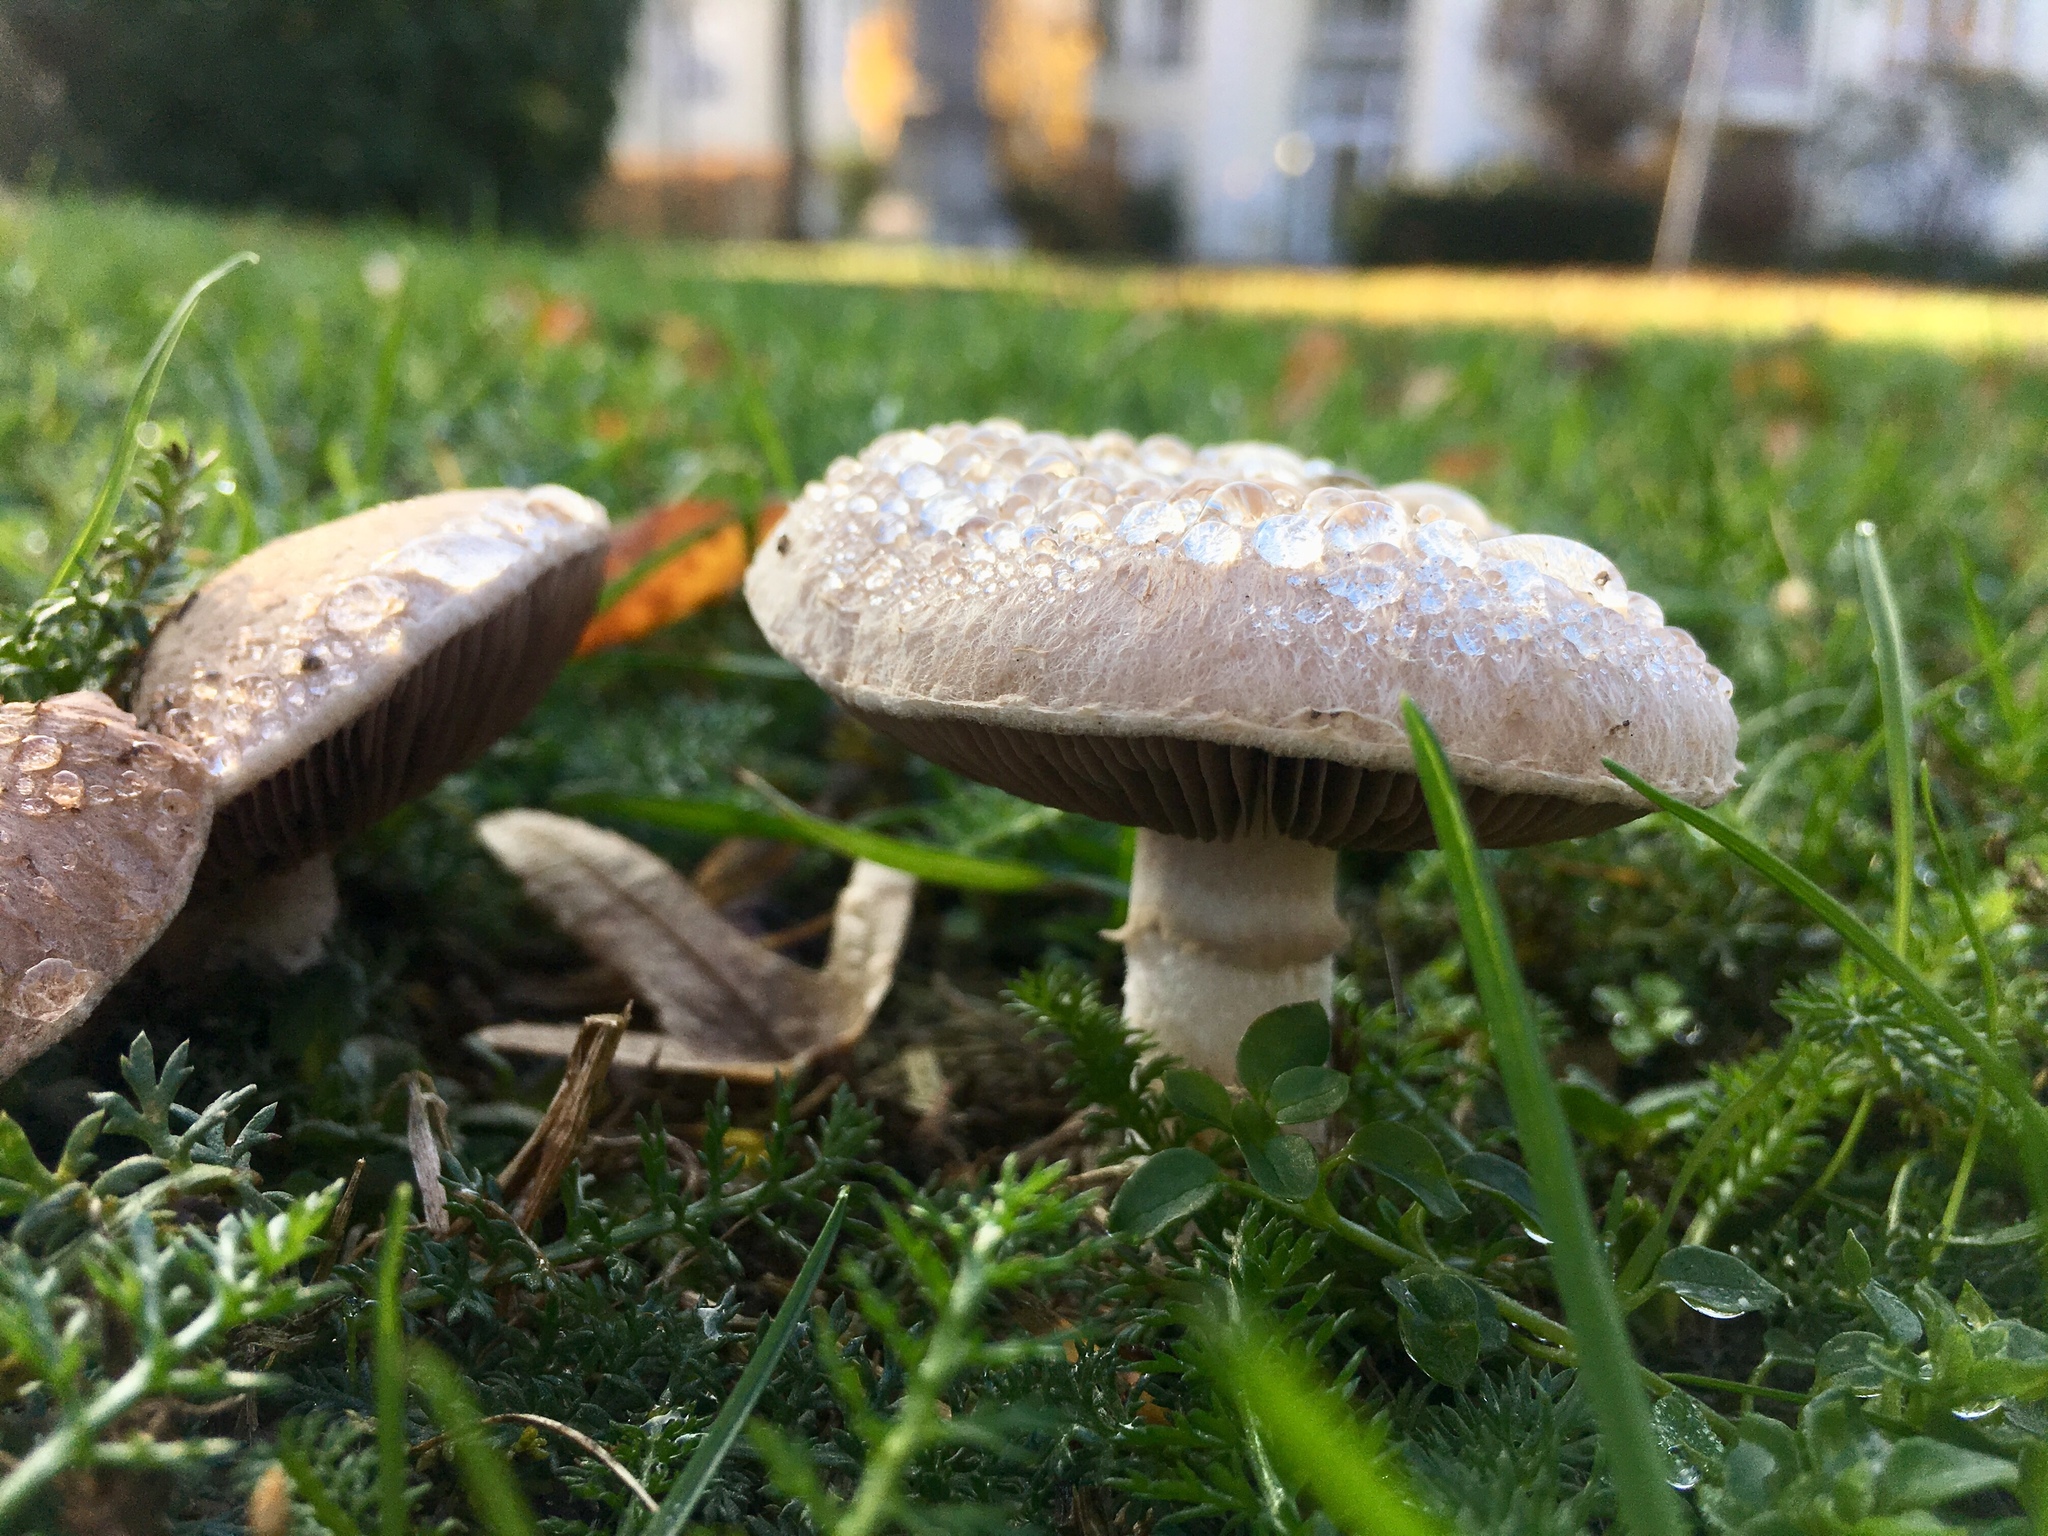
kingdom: Fungi
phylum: Basidiomycota
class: Agaricomycetes
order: Agaricales
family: Agaricaceae
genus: Agaricus
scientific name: Agaricus campestris
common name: Field mushroom
